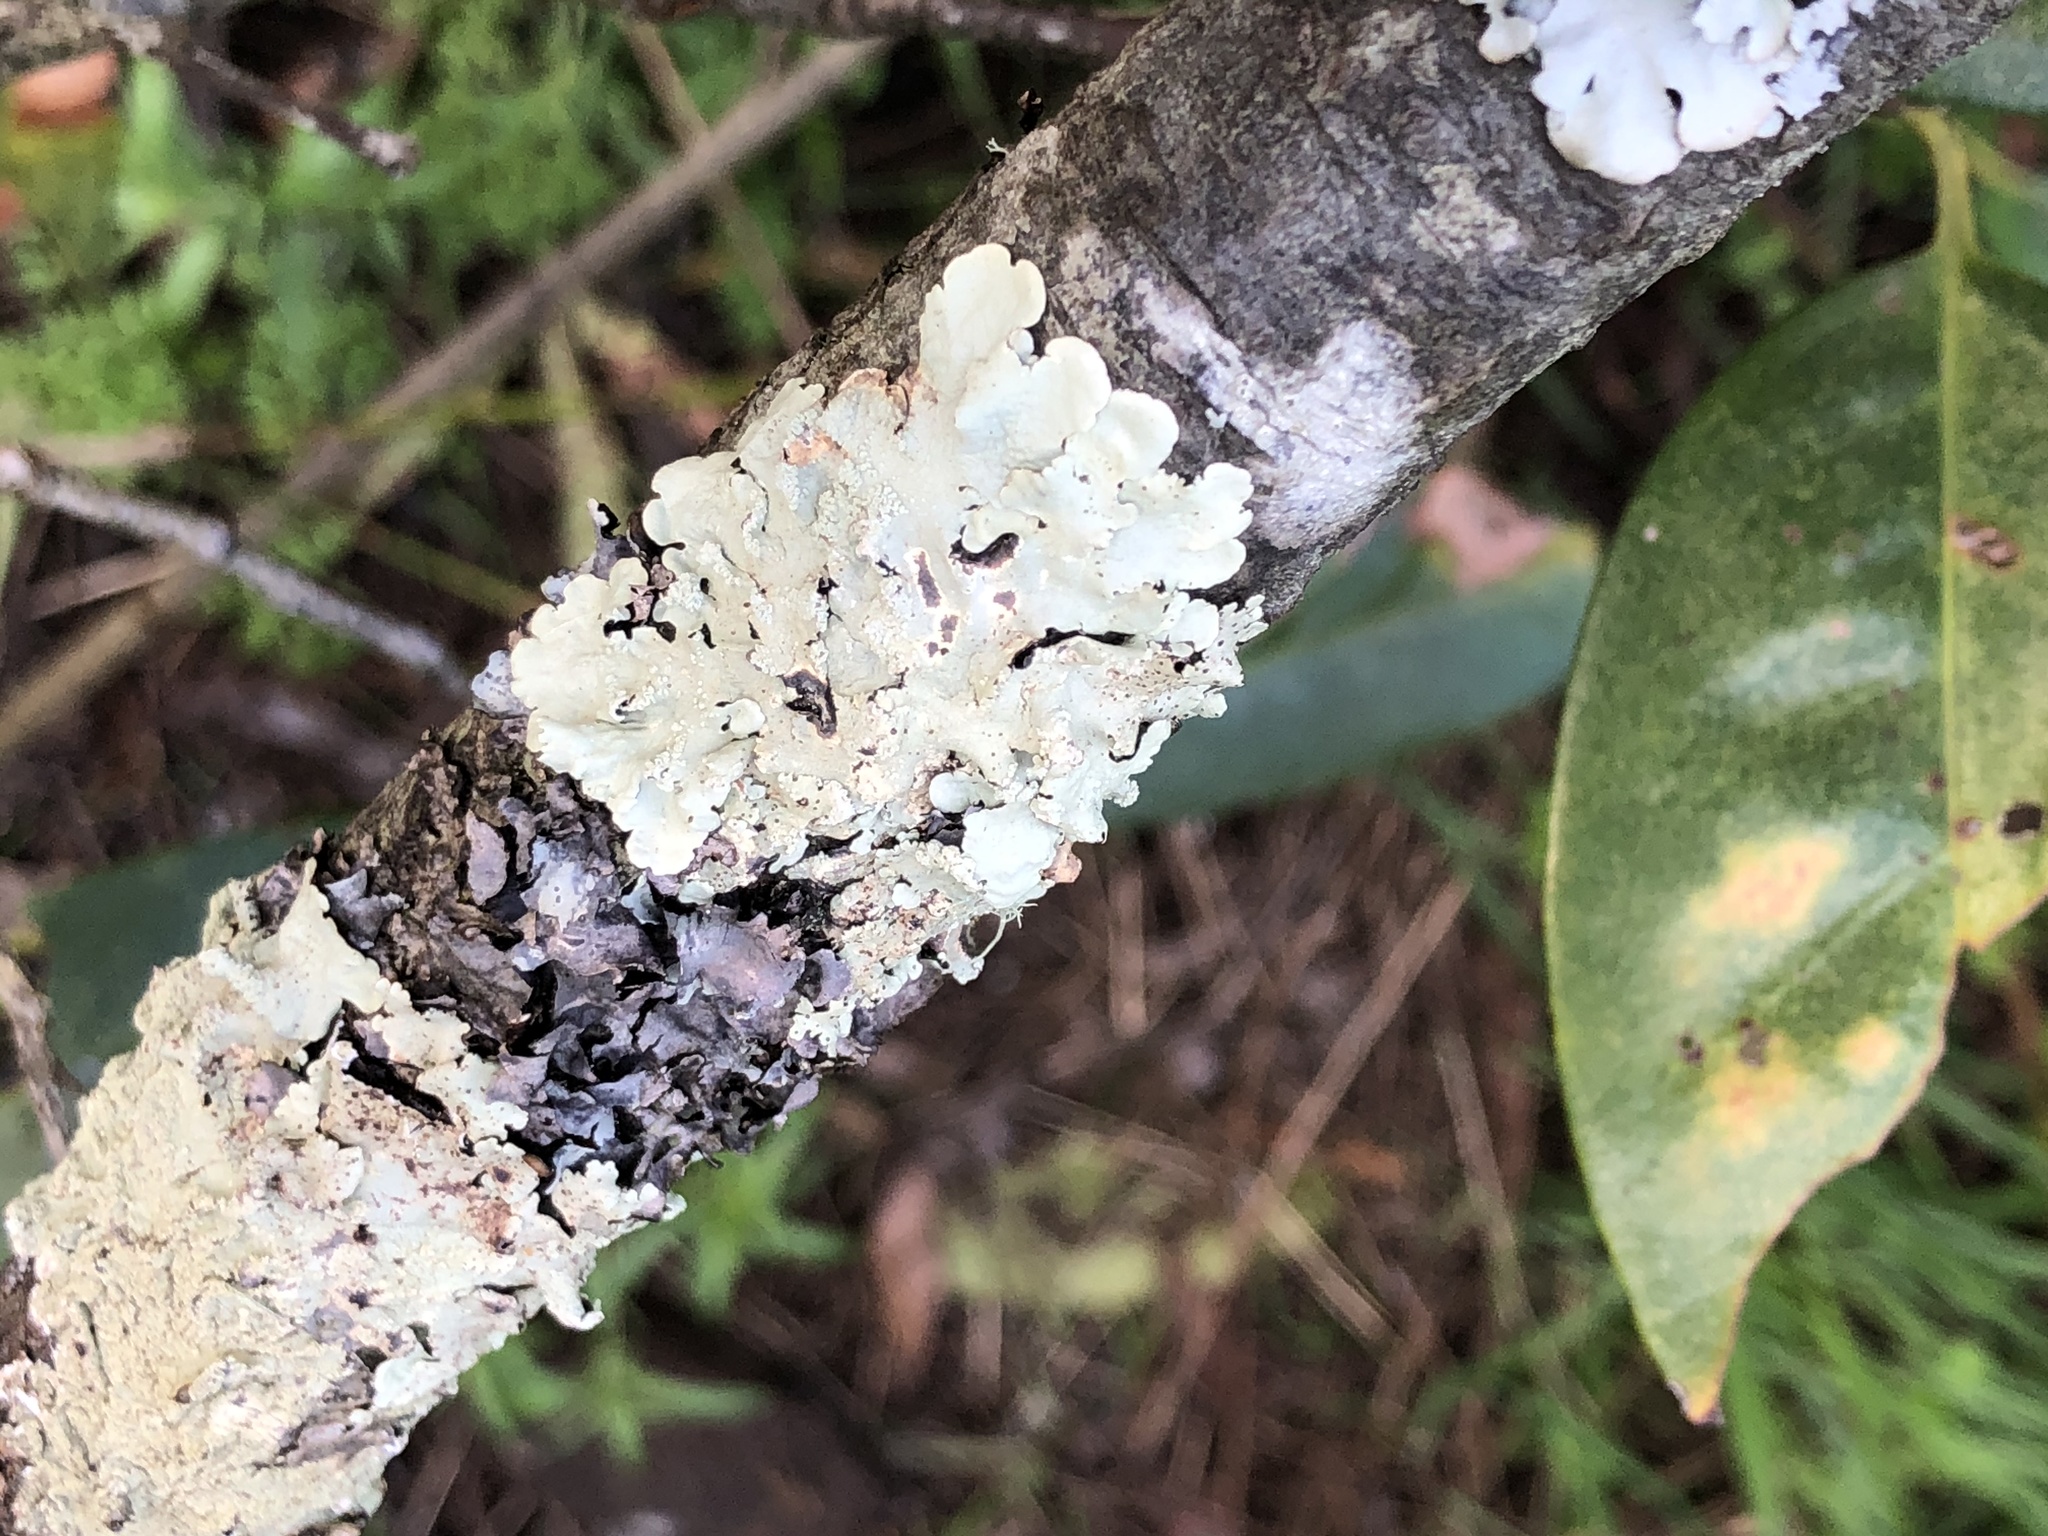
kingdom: Fungi
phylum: Ascomycota
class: Lecanoromycetes
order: Lecanorales
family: Parmeliaceae
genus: Flavoparmelia
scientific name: Flavoparmelia caperata
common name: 40-mile per hour lichen
